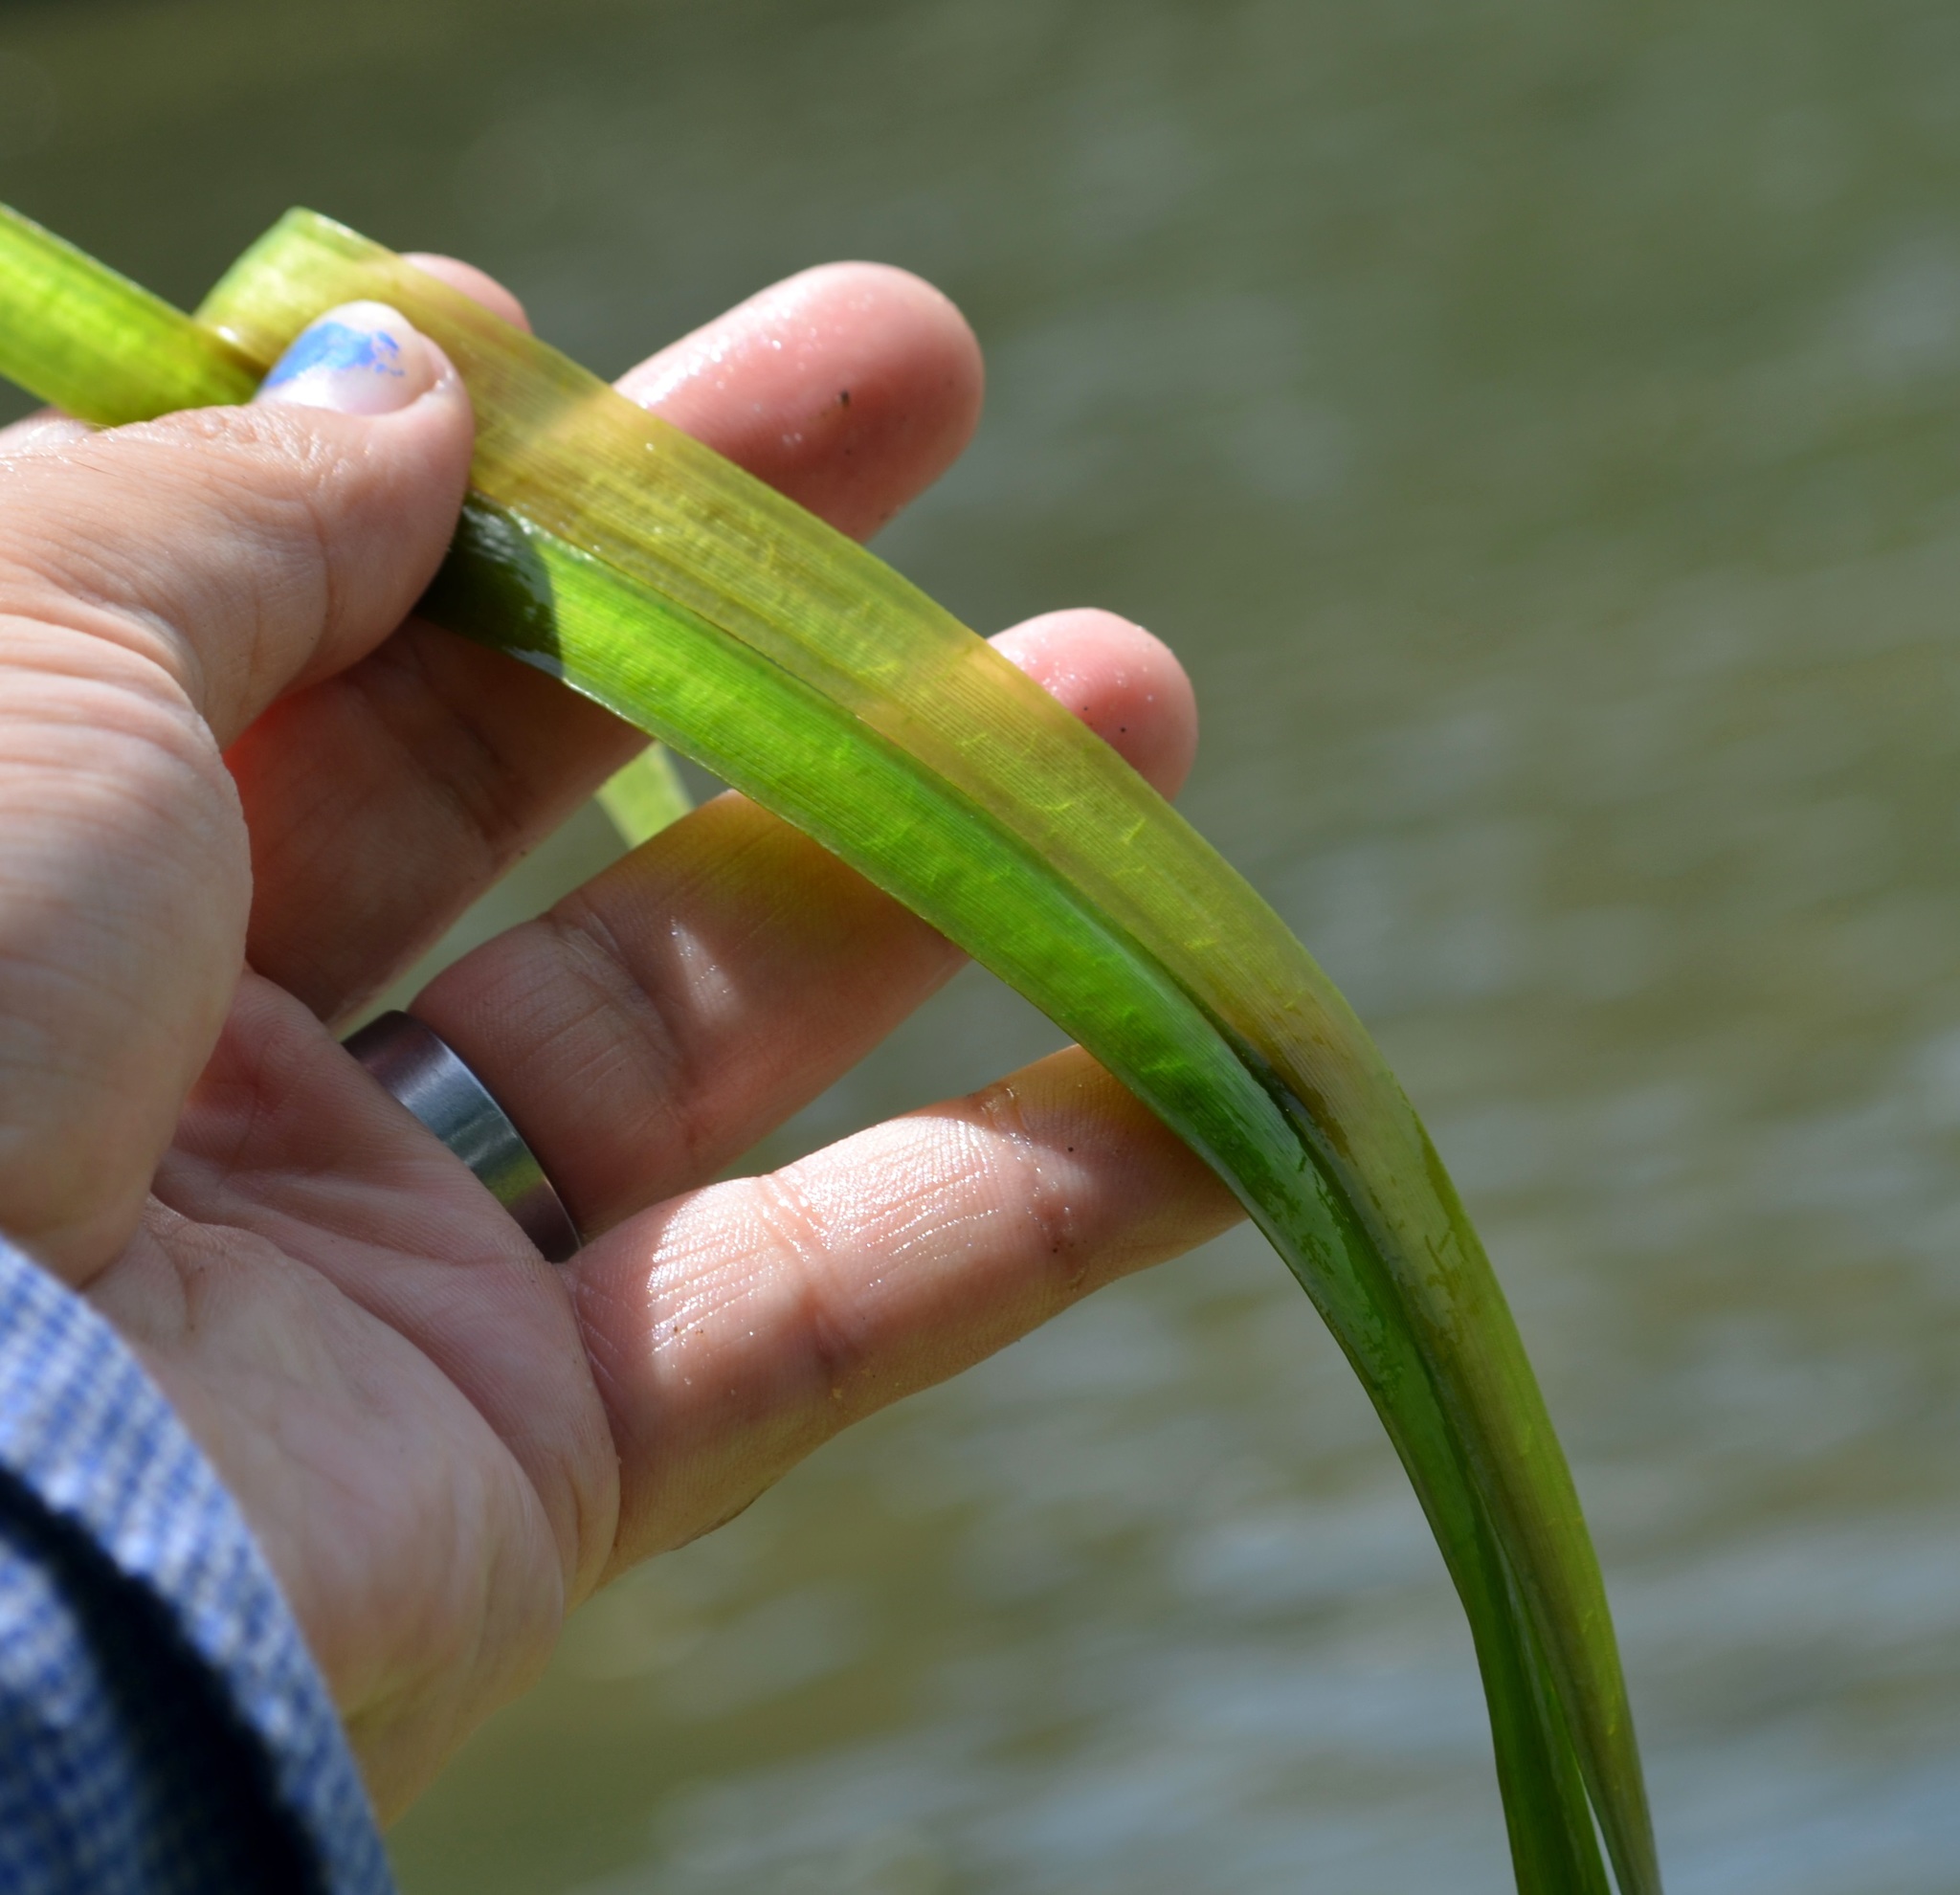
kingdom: Plantae
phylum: Tracheophyta
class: Liliopsida
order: Alismatales
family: Hydrocharitaceae
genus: Vallisneria
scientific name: Vallisneria americana
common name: American eelgrass
